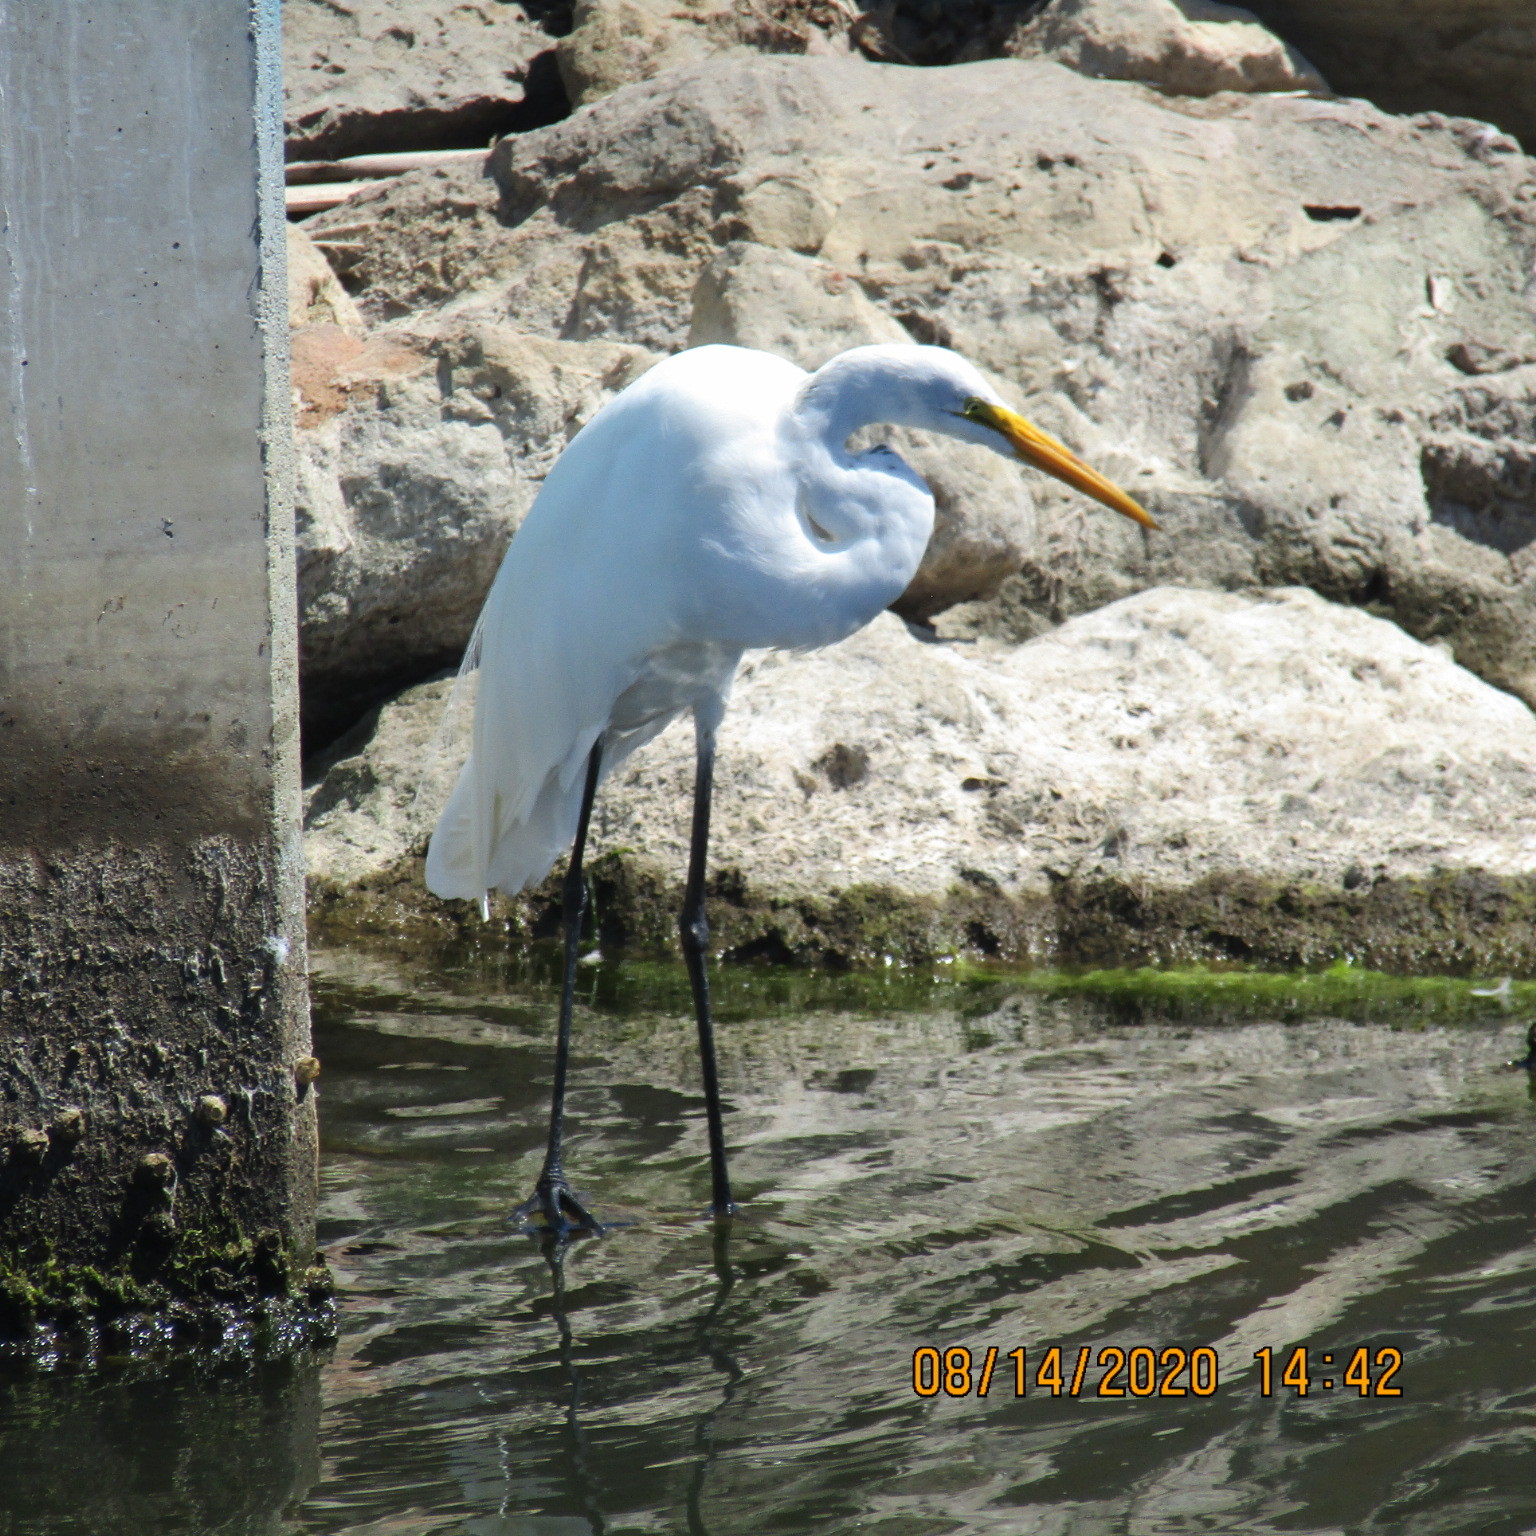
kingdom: Animalia
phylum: Chordata
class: Aves
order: Pelecaniformes
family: Ardeidae
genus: Ardea
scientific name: Ardea alba
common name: Great egret
